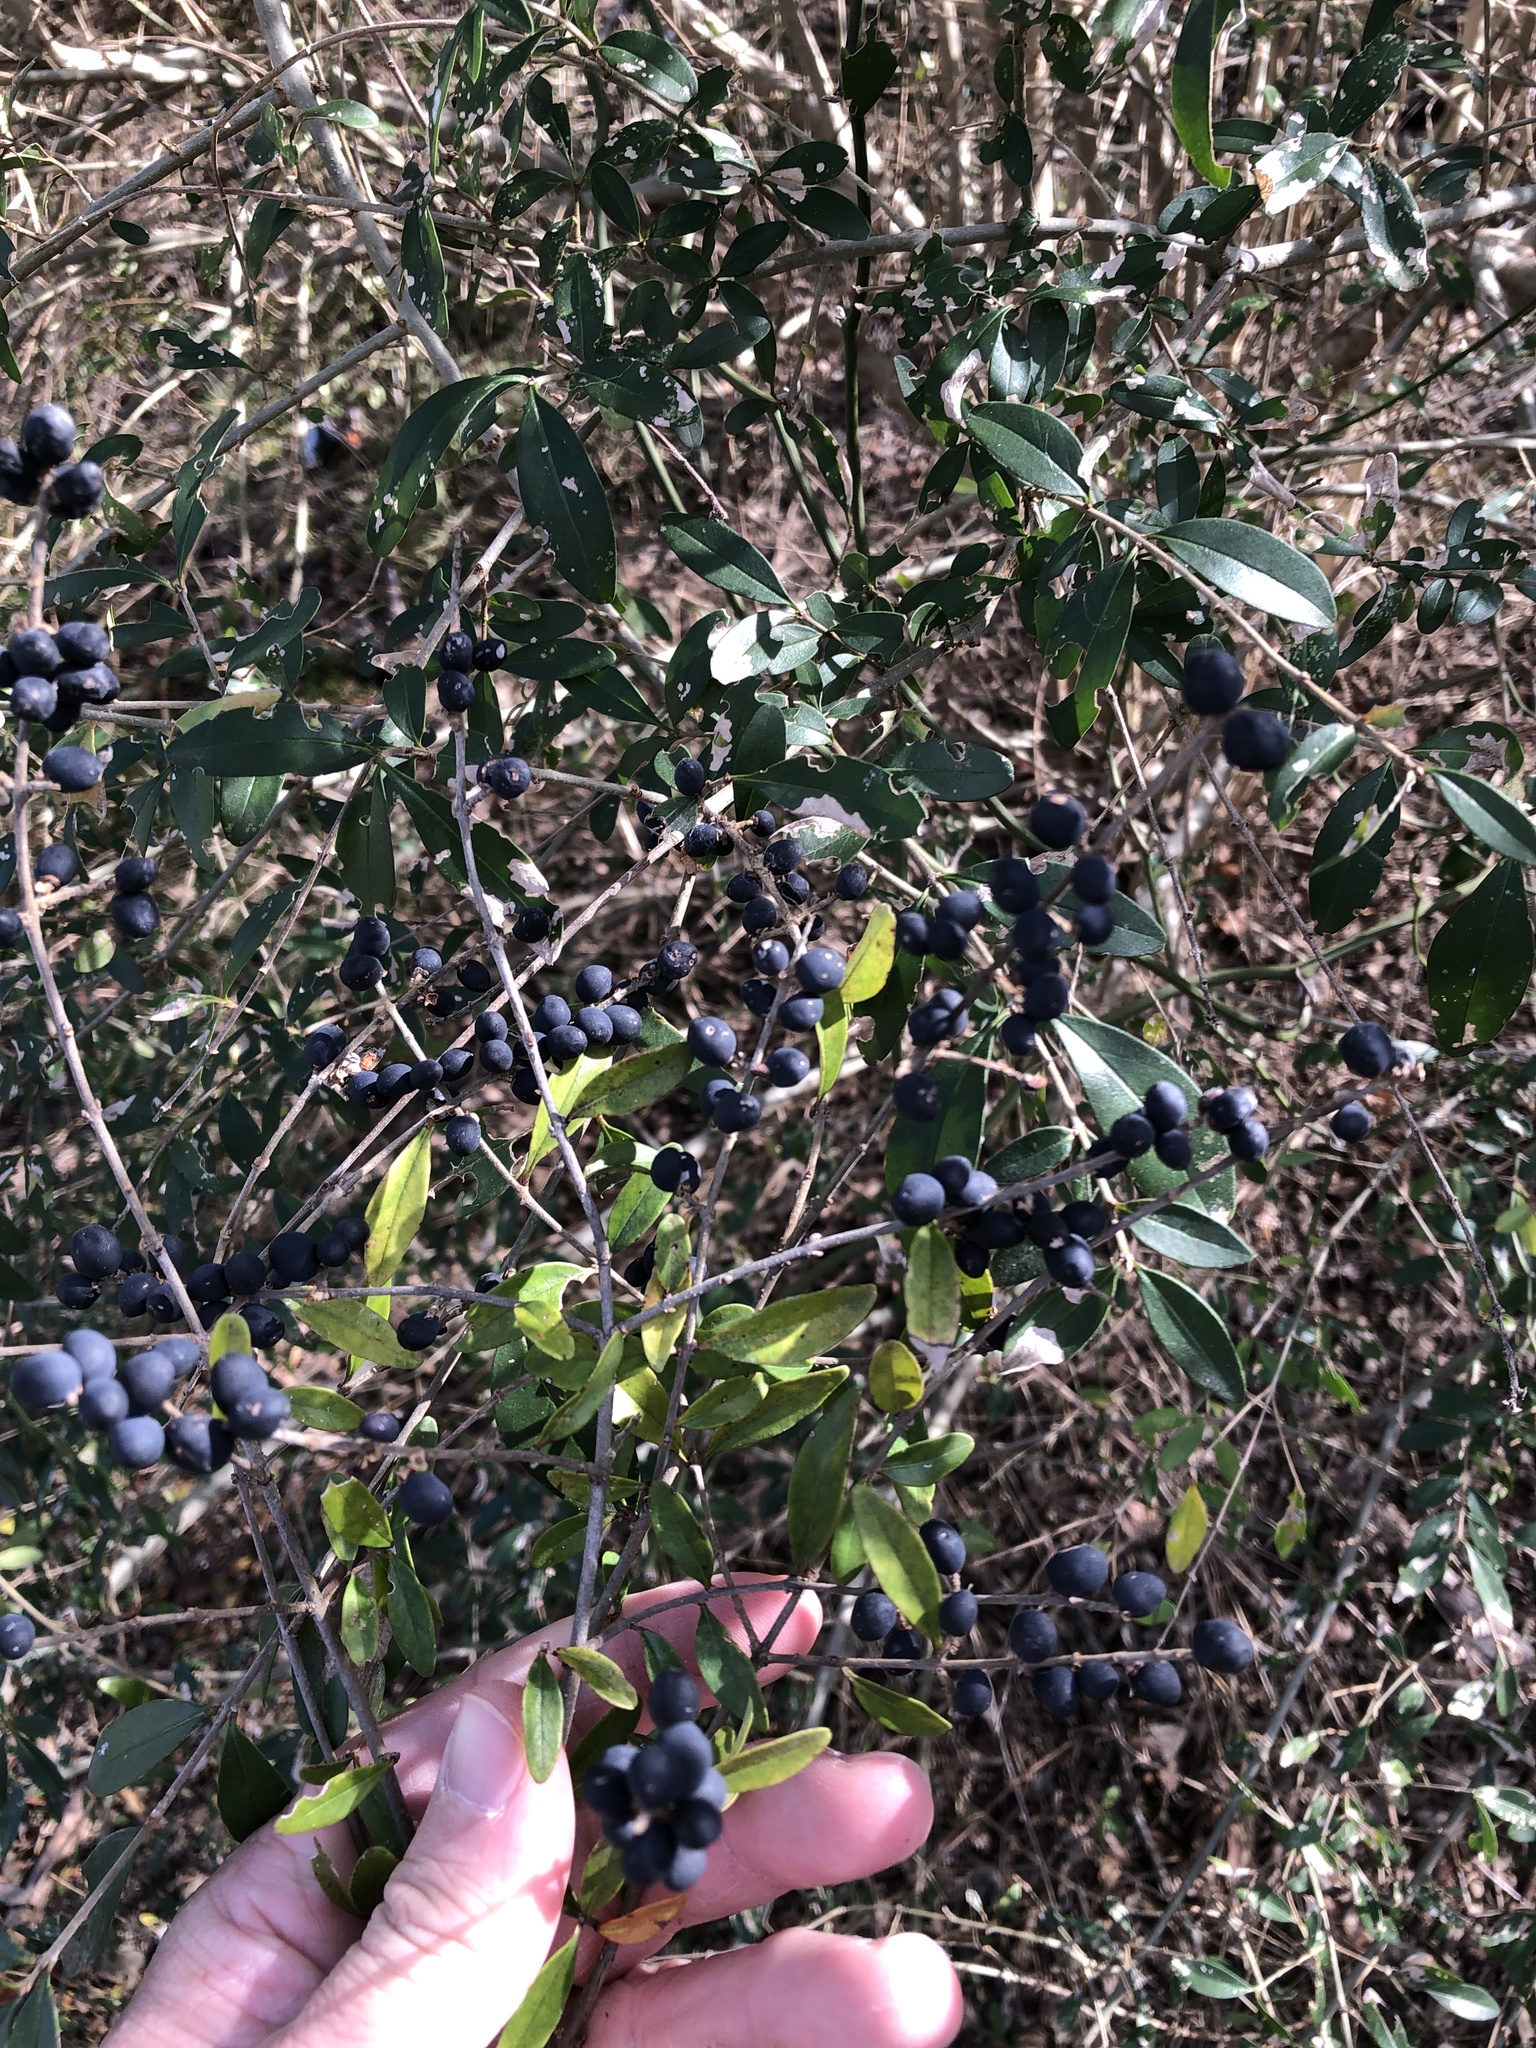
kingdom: Plantae
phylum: Tracheophyta
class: Magnoliopsida
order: Lamiales
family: Oleaceae
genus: Ligustrum
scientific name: Ligustrum quihoui
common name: Waxyleaf privet
